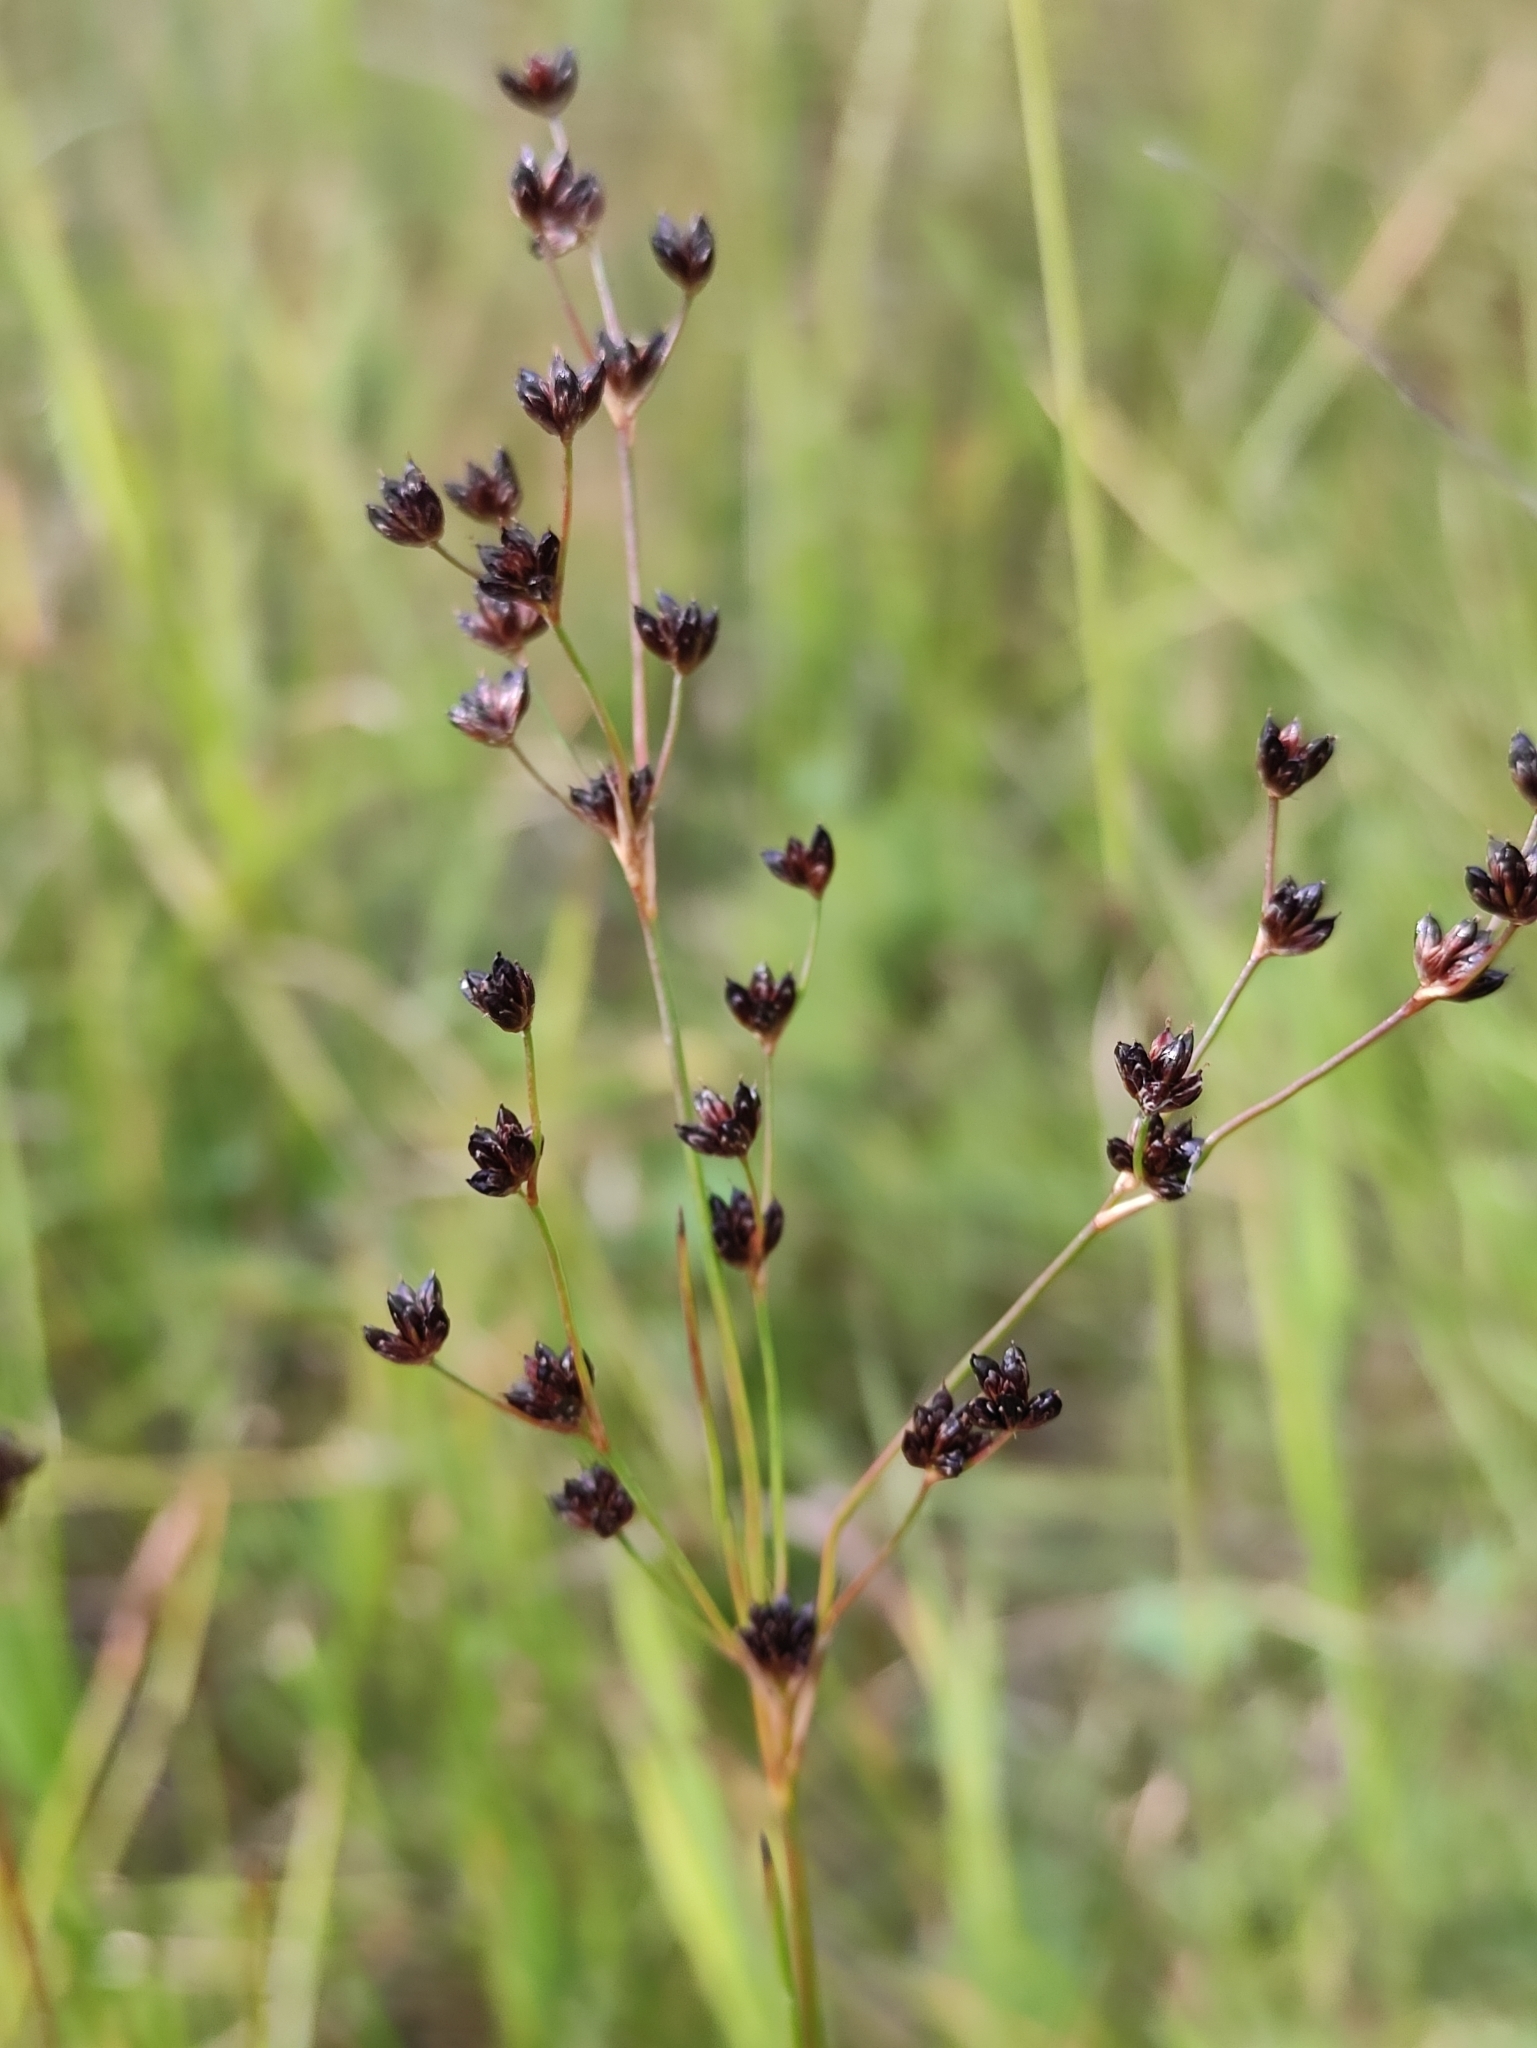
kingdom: Plantae
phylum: Tracheophyta
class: Liliopsida
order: Poales
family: Juncaceae
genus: Juncus
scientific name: Juncus alpinoarticulatus
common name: Alpine rush
